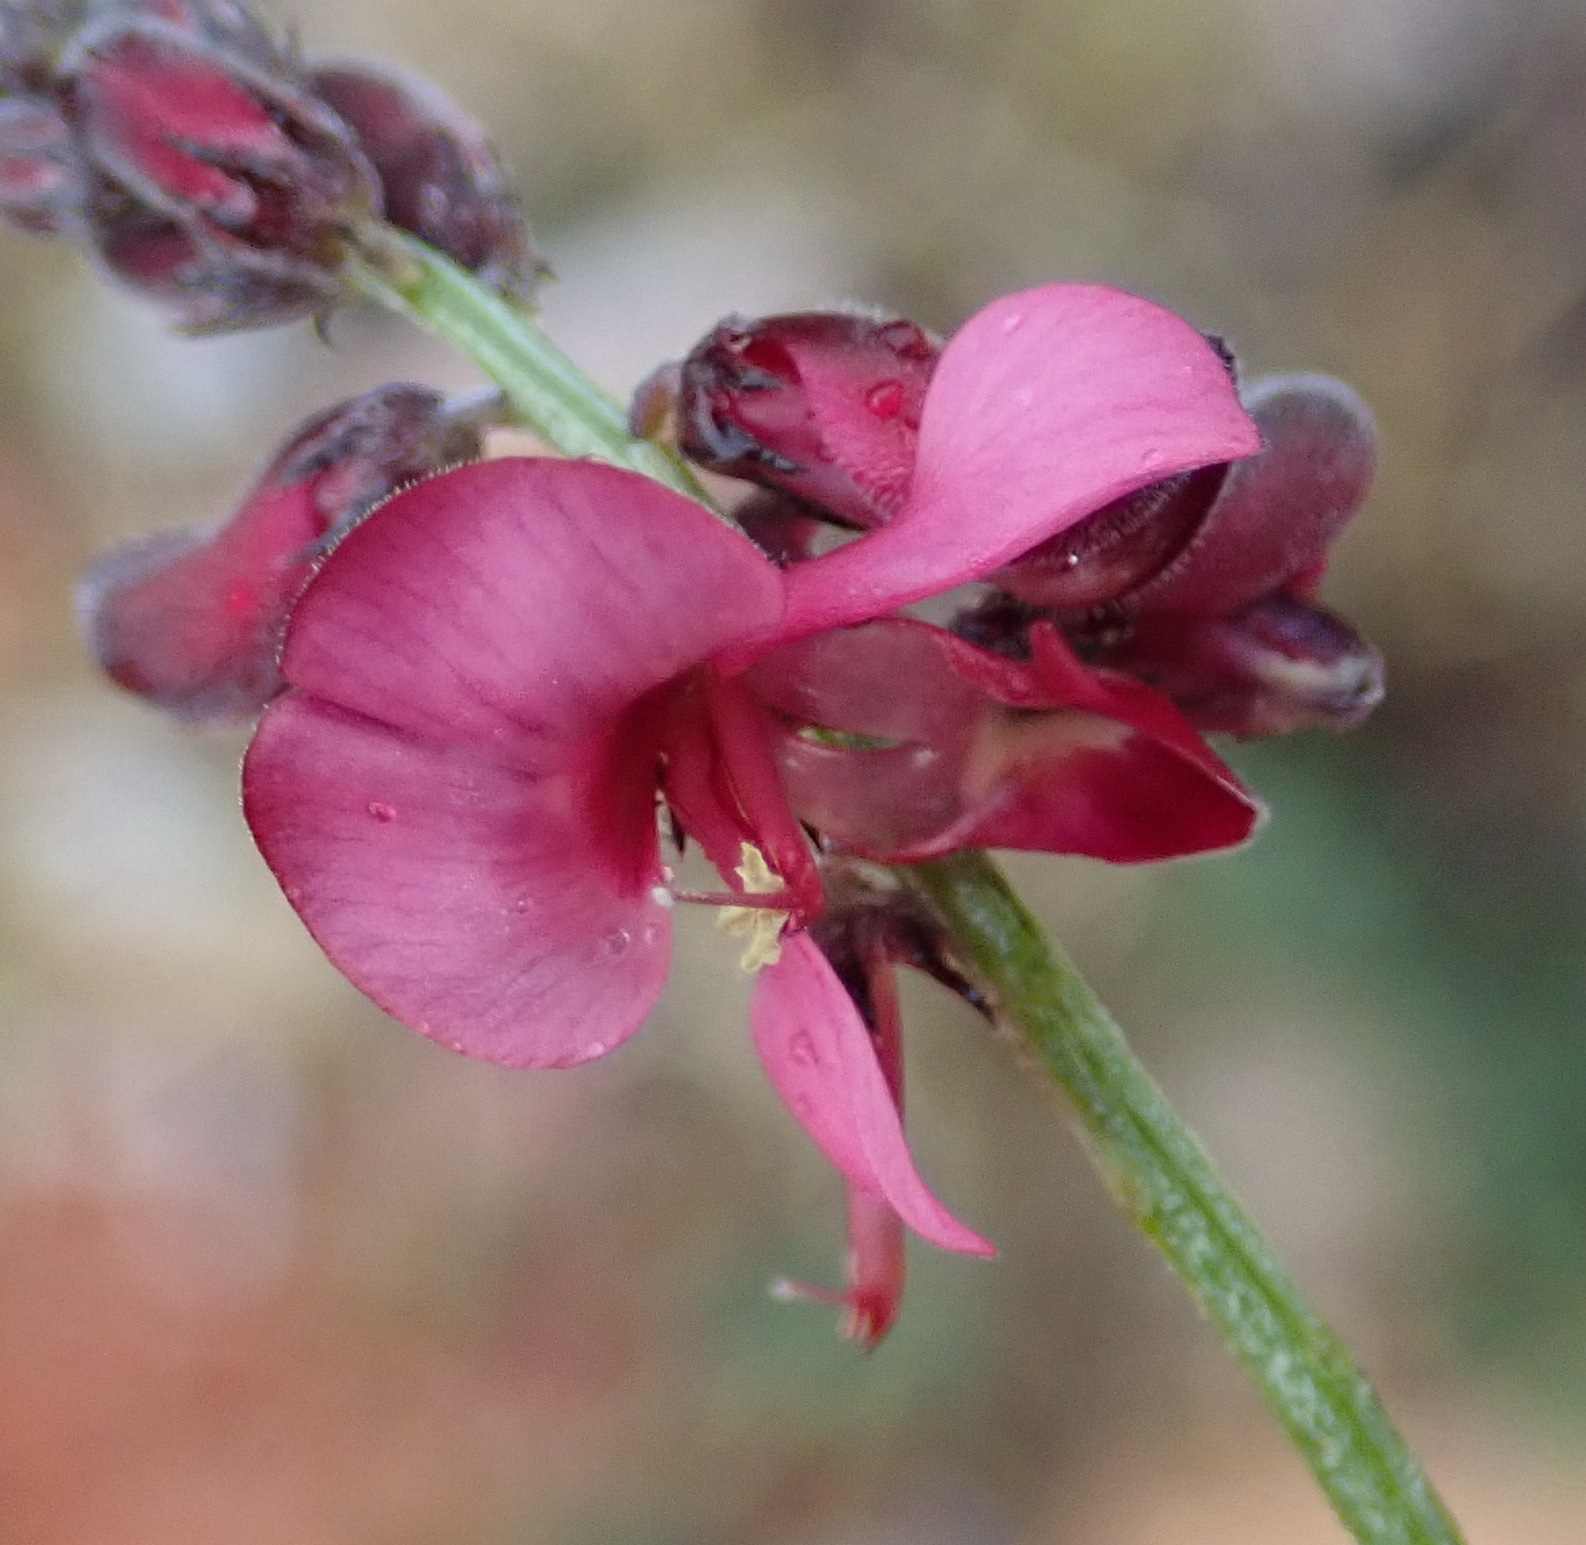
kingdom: Plantae
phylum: Tracheophyta
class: Magnoliopsida
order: Fabales
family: Fabaceae
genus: Indigofera
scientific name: Indigofera heterophylla
